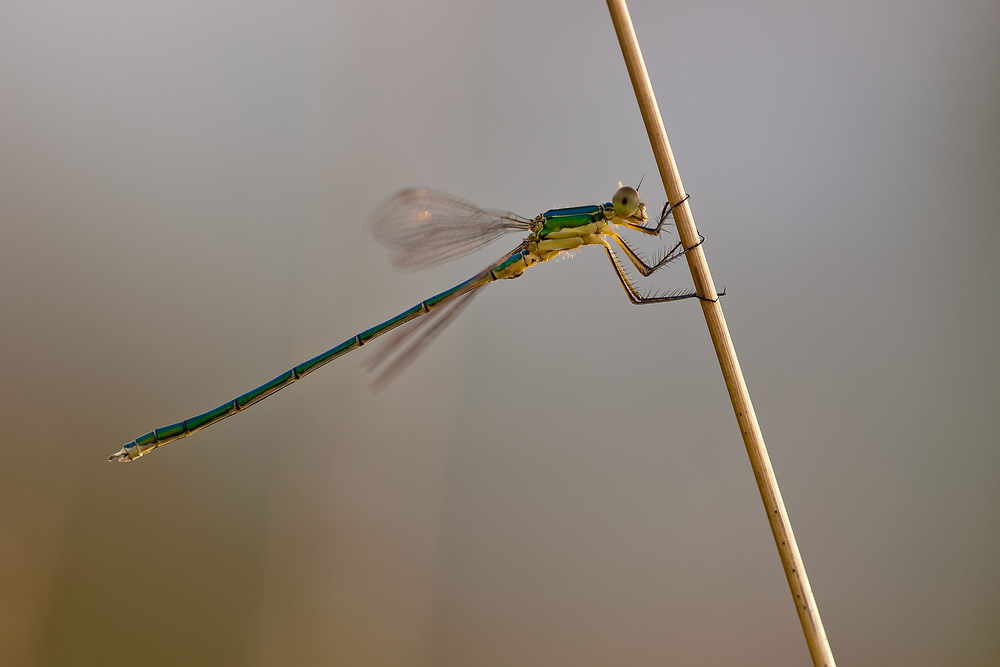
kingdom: Animalia
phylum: Arthropoda
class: Insecta
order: Odonata
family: Lestidae
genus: Lestes
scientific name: Lestes virens
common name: Small emerald spreadwing
